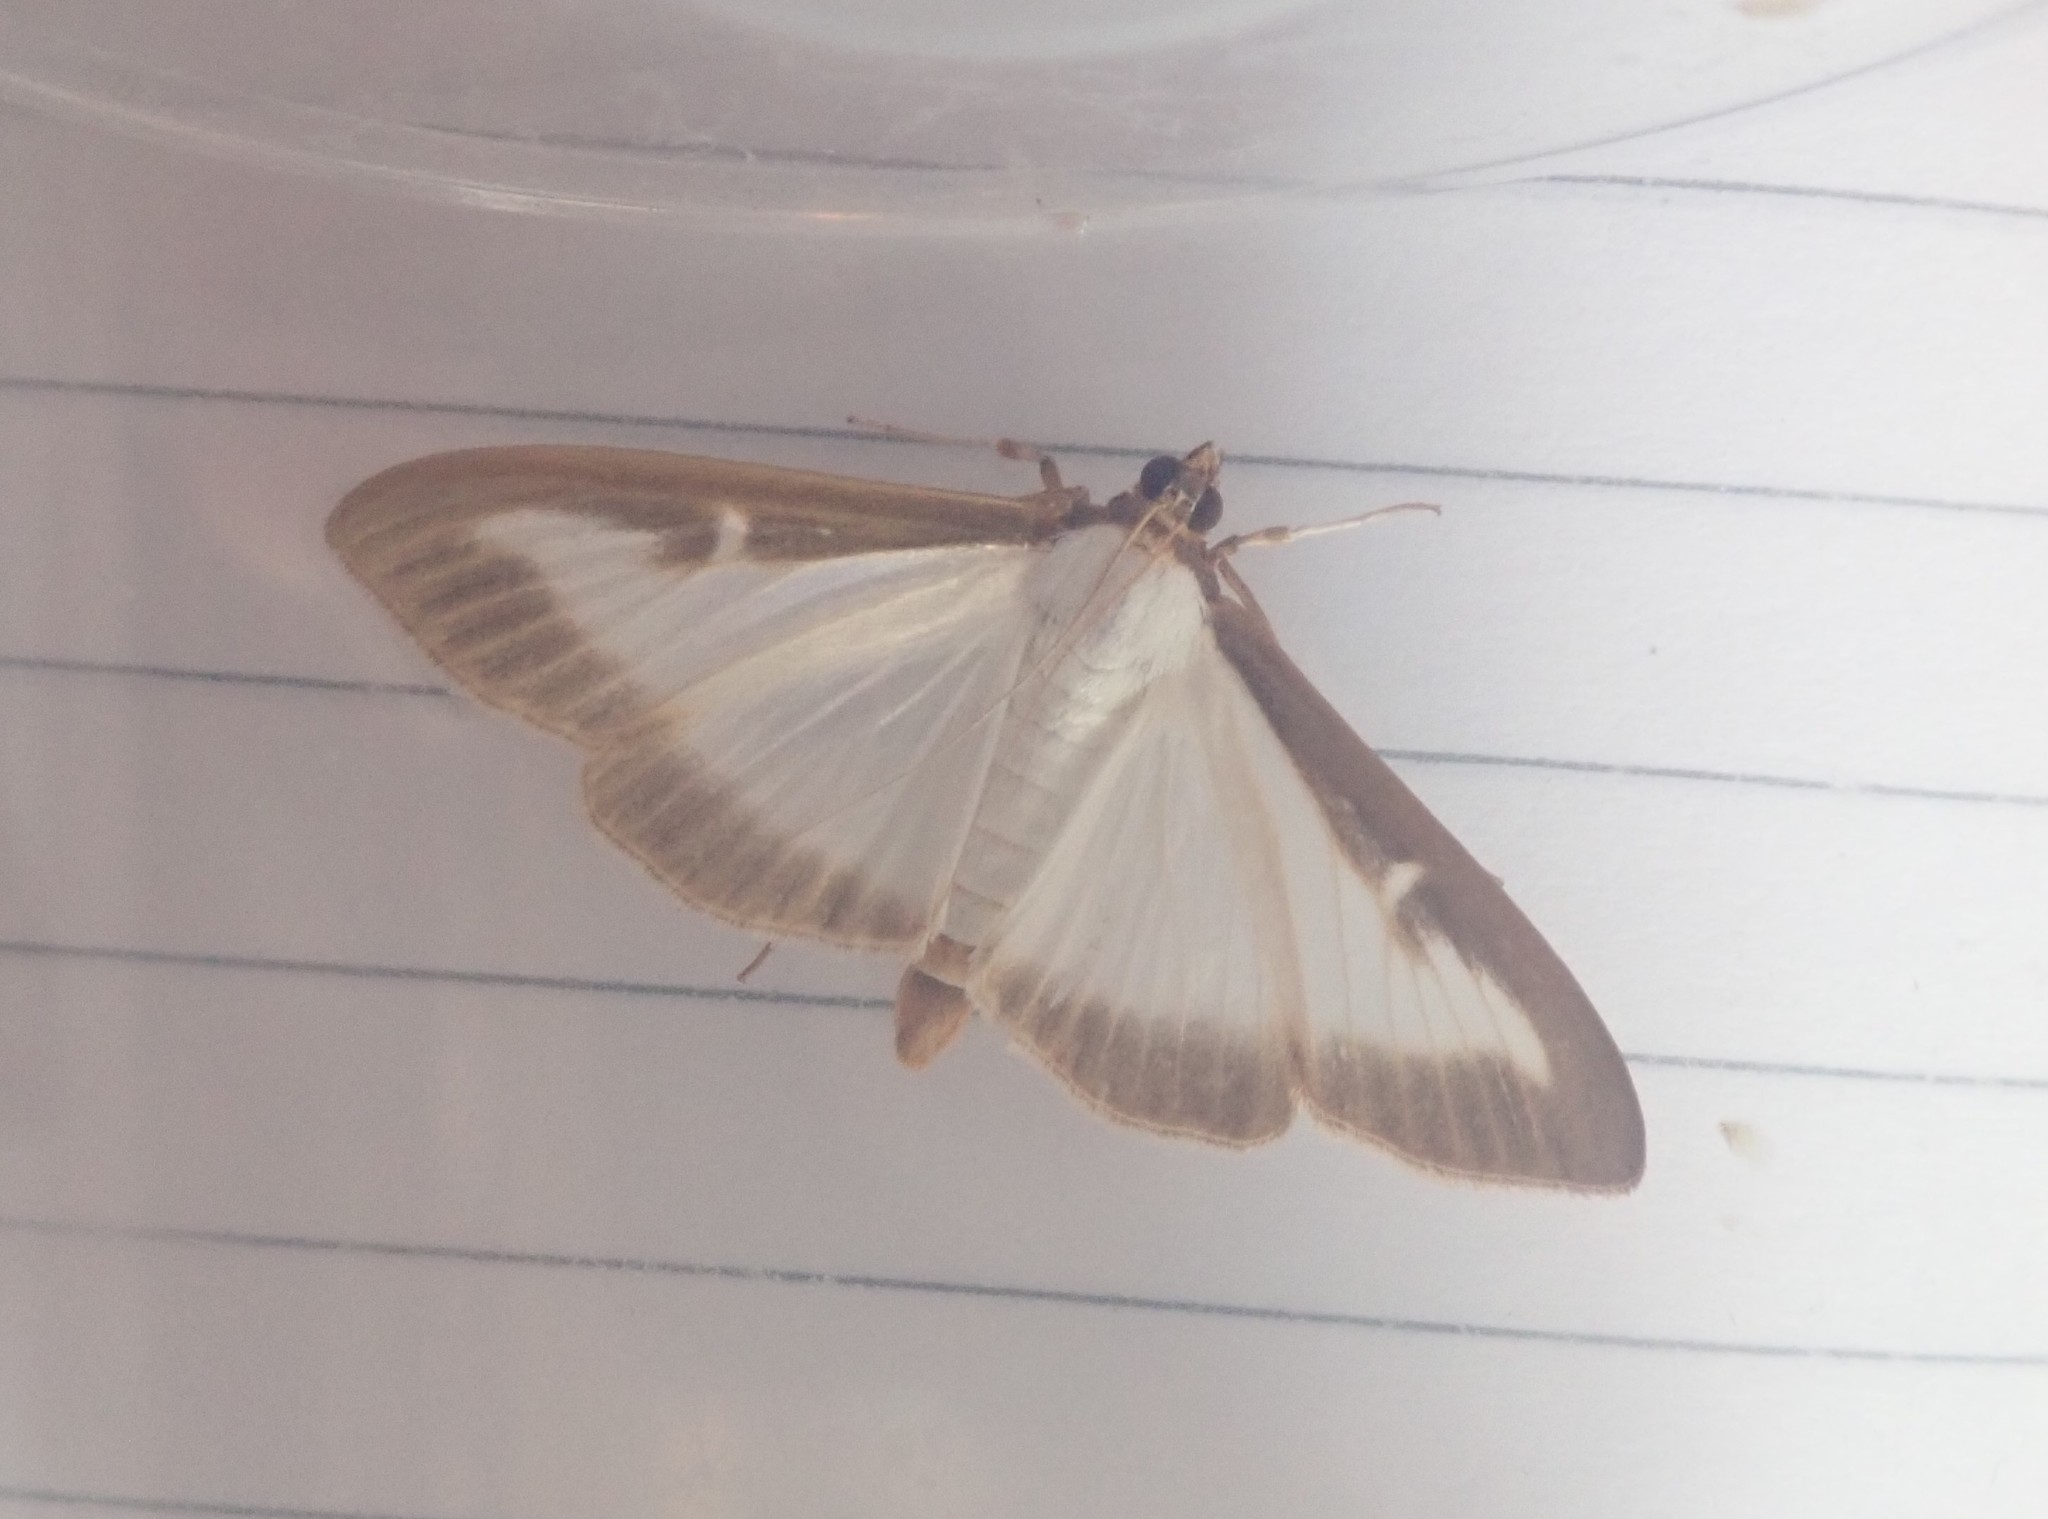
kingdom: Animalia
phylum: Arthropoda
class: Insecta
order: Lepidoptera
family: Crambidae
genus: Cydalima
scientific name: Cydalima perspectalis
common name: Box tree moth
